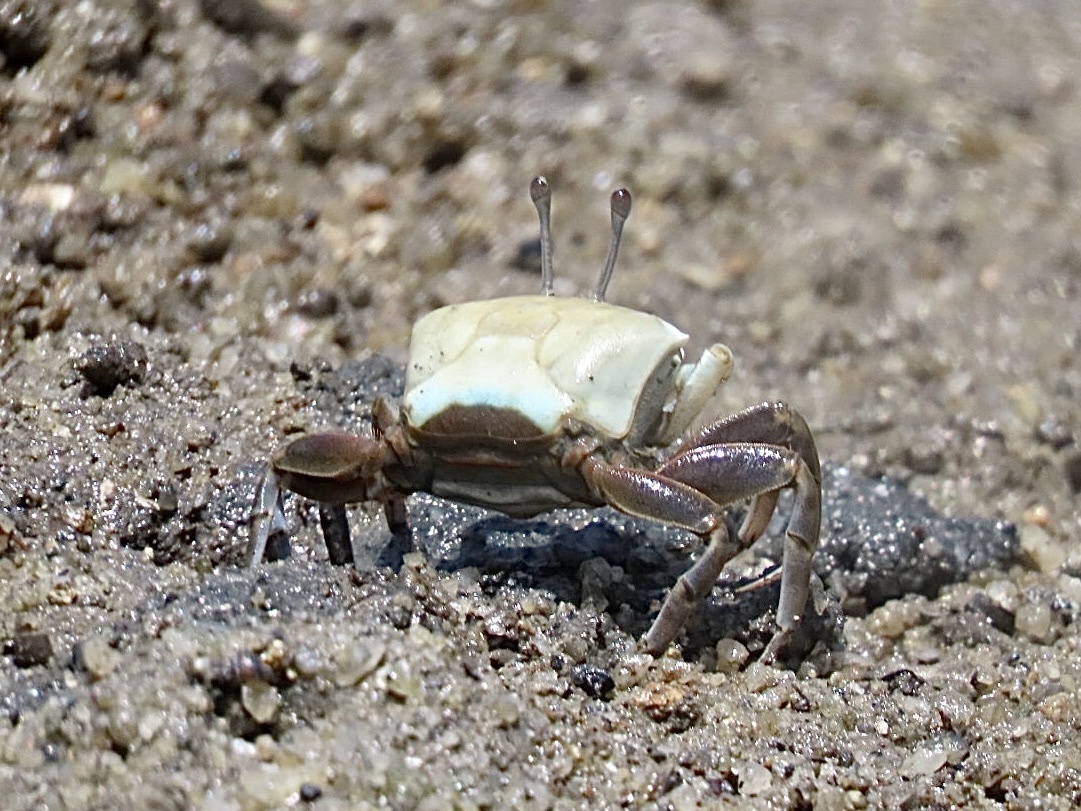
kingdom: Animalia
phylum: Arthropoda
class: Malacostraca
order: Decapoda
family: Ocypodidae
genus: Gelasimus
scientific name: Gelasimus borealis
